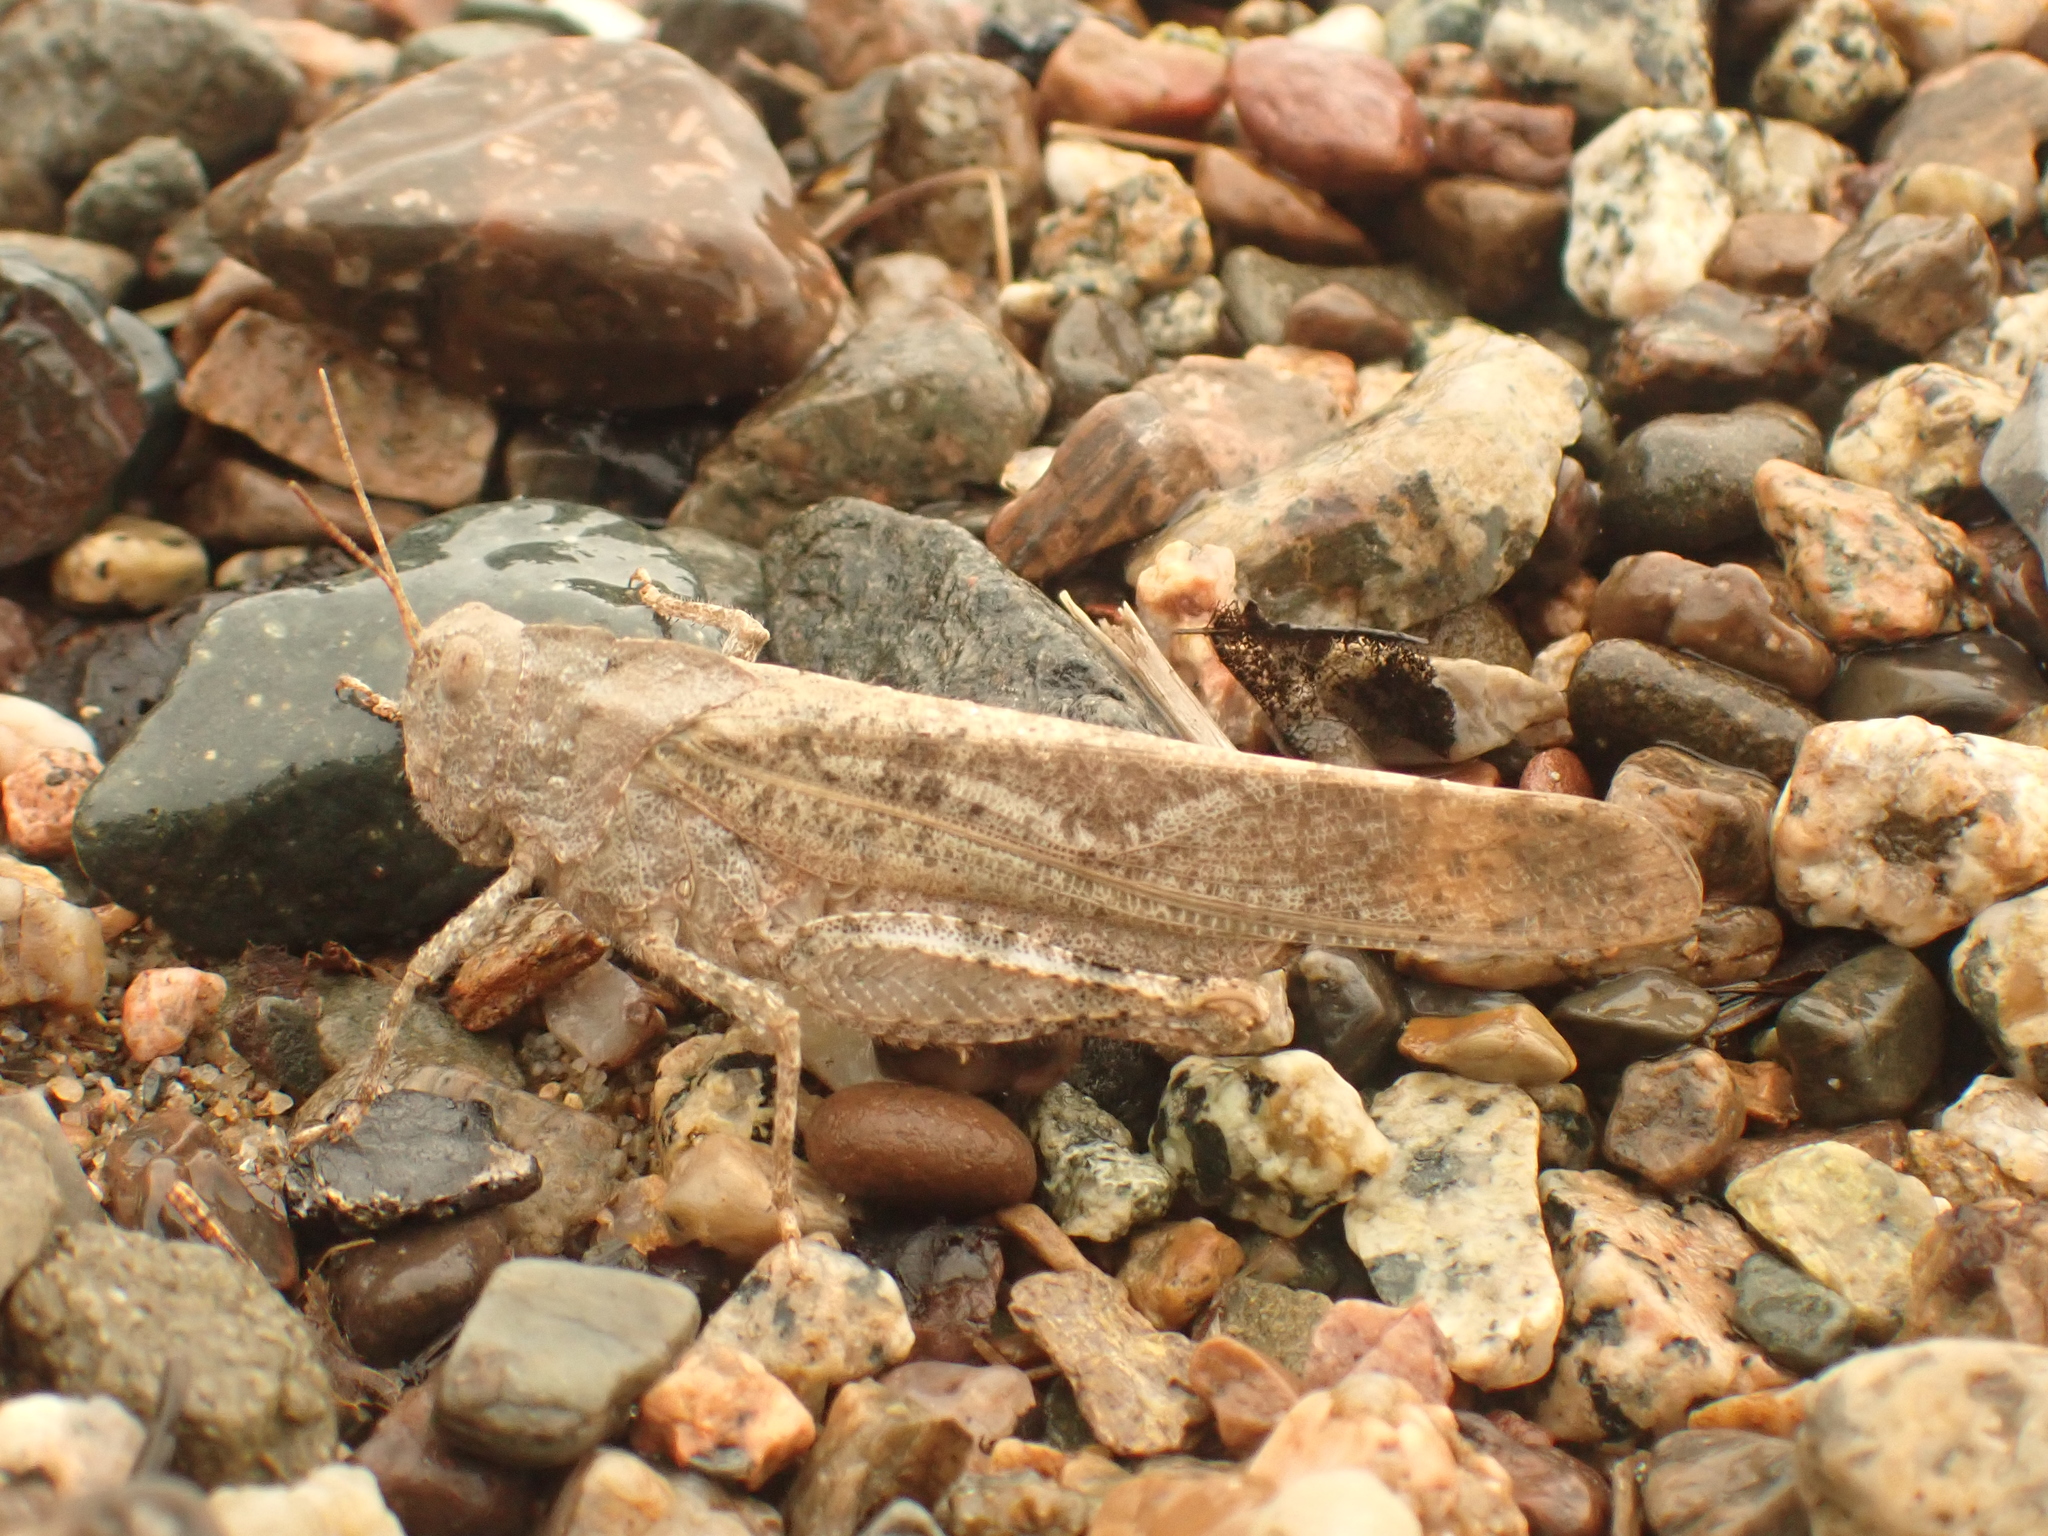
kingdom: Animalia
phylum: Arthropoda
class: Insecta
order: Orthoptera
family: Acrididae
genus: Dissosteira
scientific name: Dissosteira carolina
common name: Carolina grasshopper
